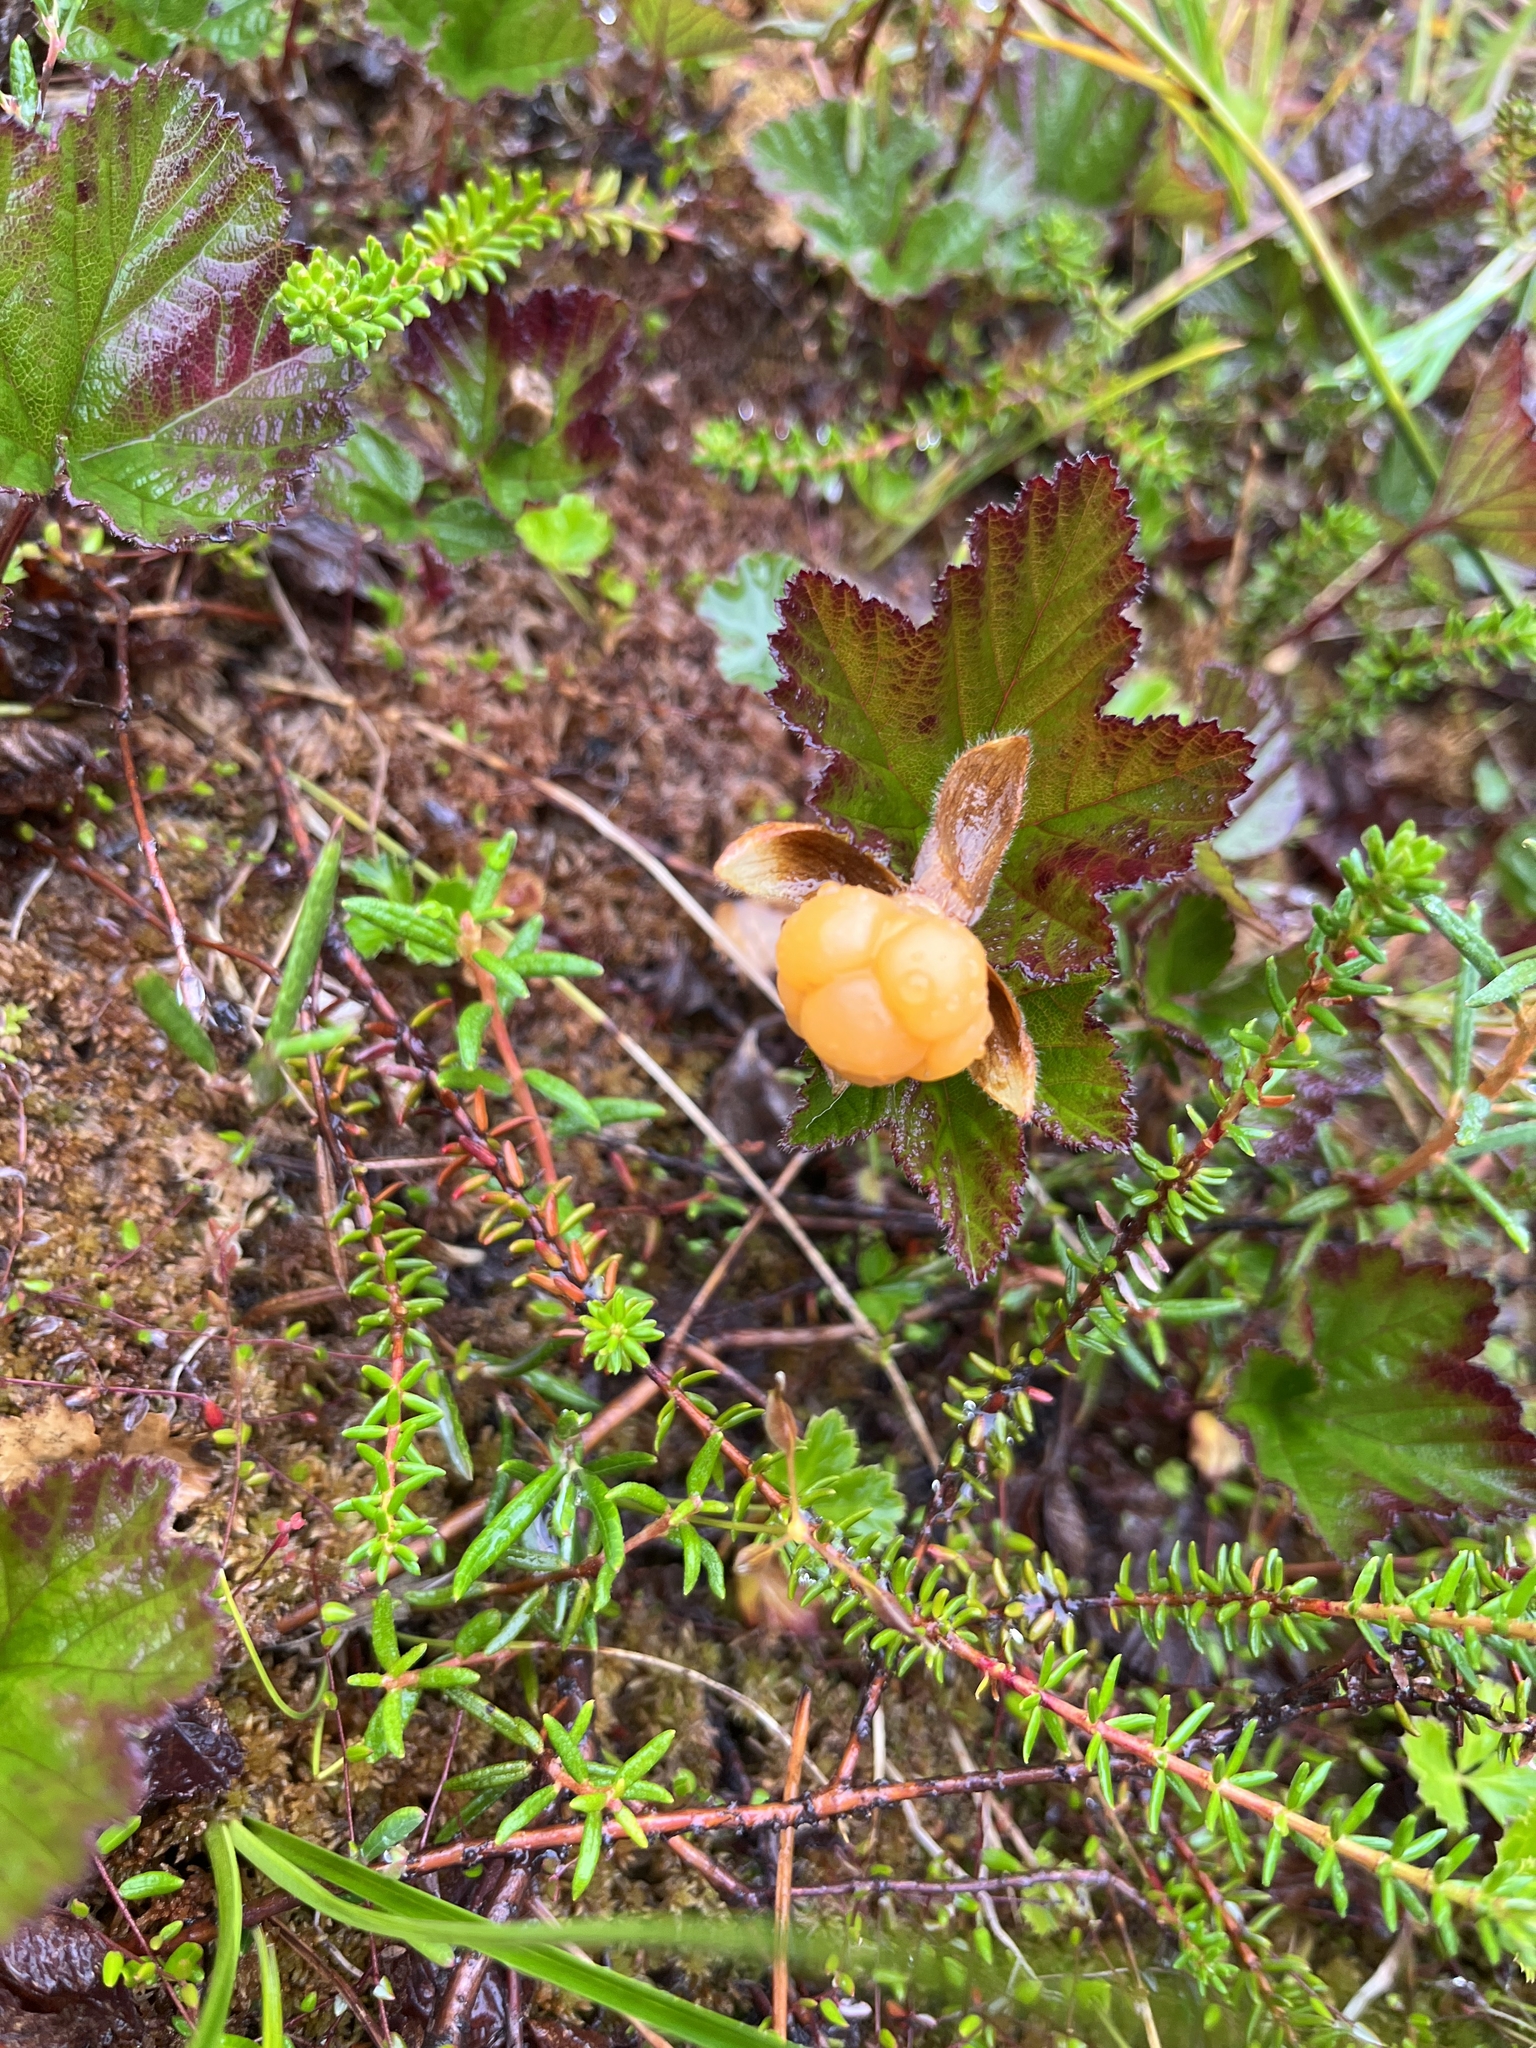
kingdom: Plantae
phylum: Tracheophyta
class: Magnoliopsida
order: Rosales
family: Rosaceae
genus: Rubus
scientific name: Rubus chamaemorus
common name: Cloudberry
